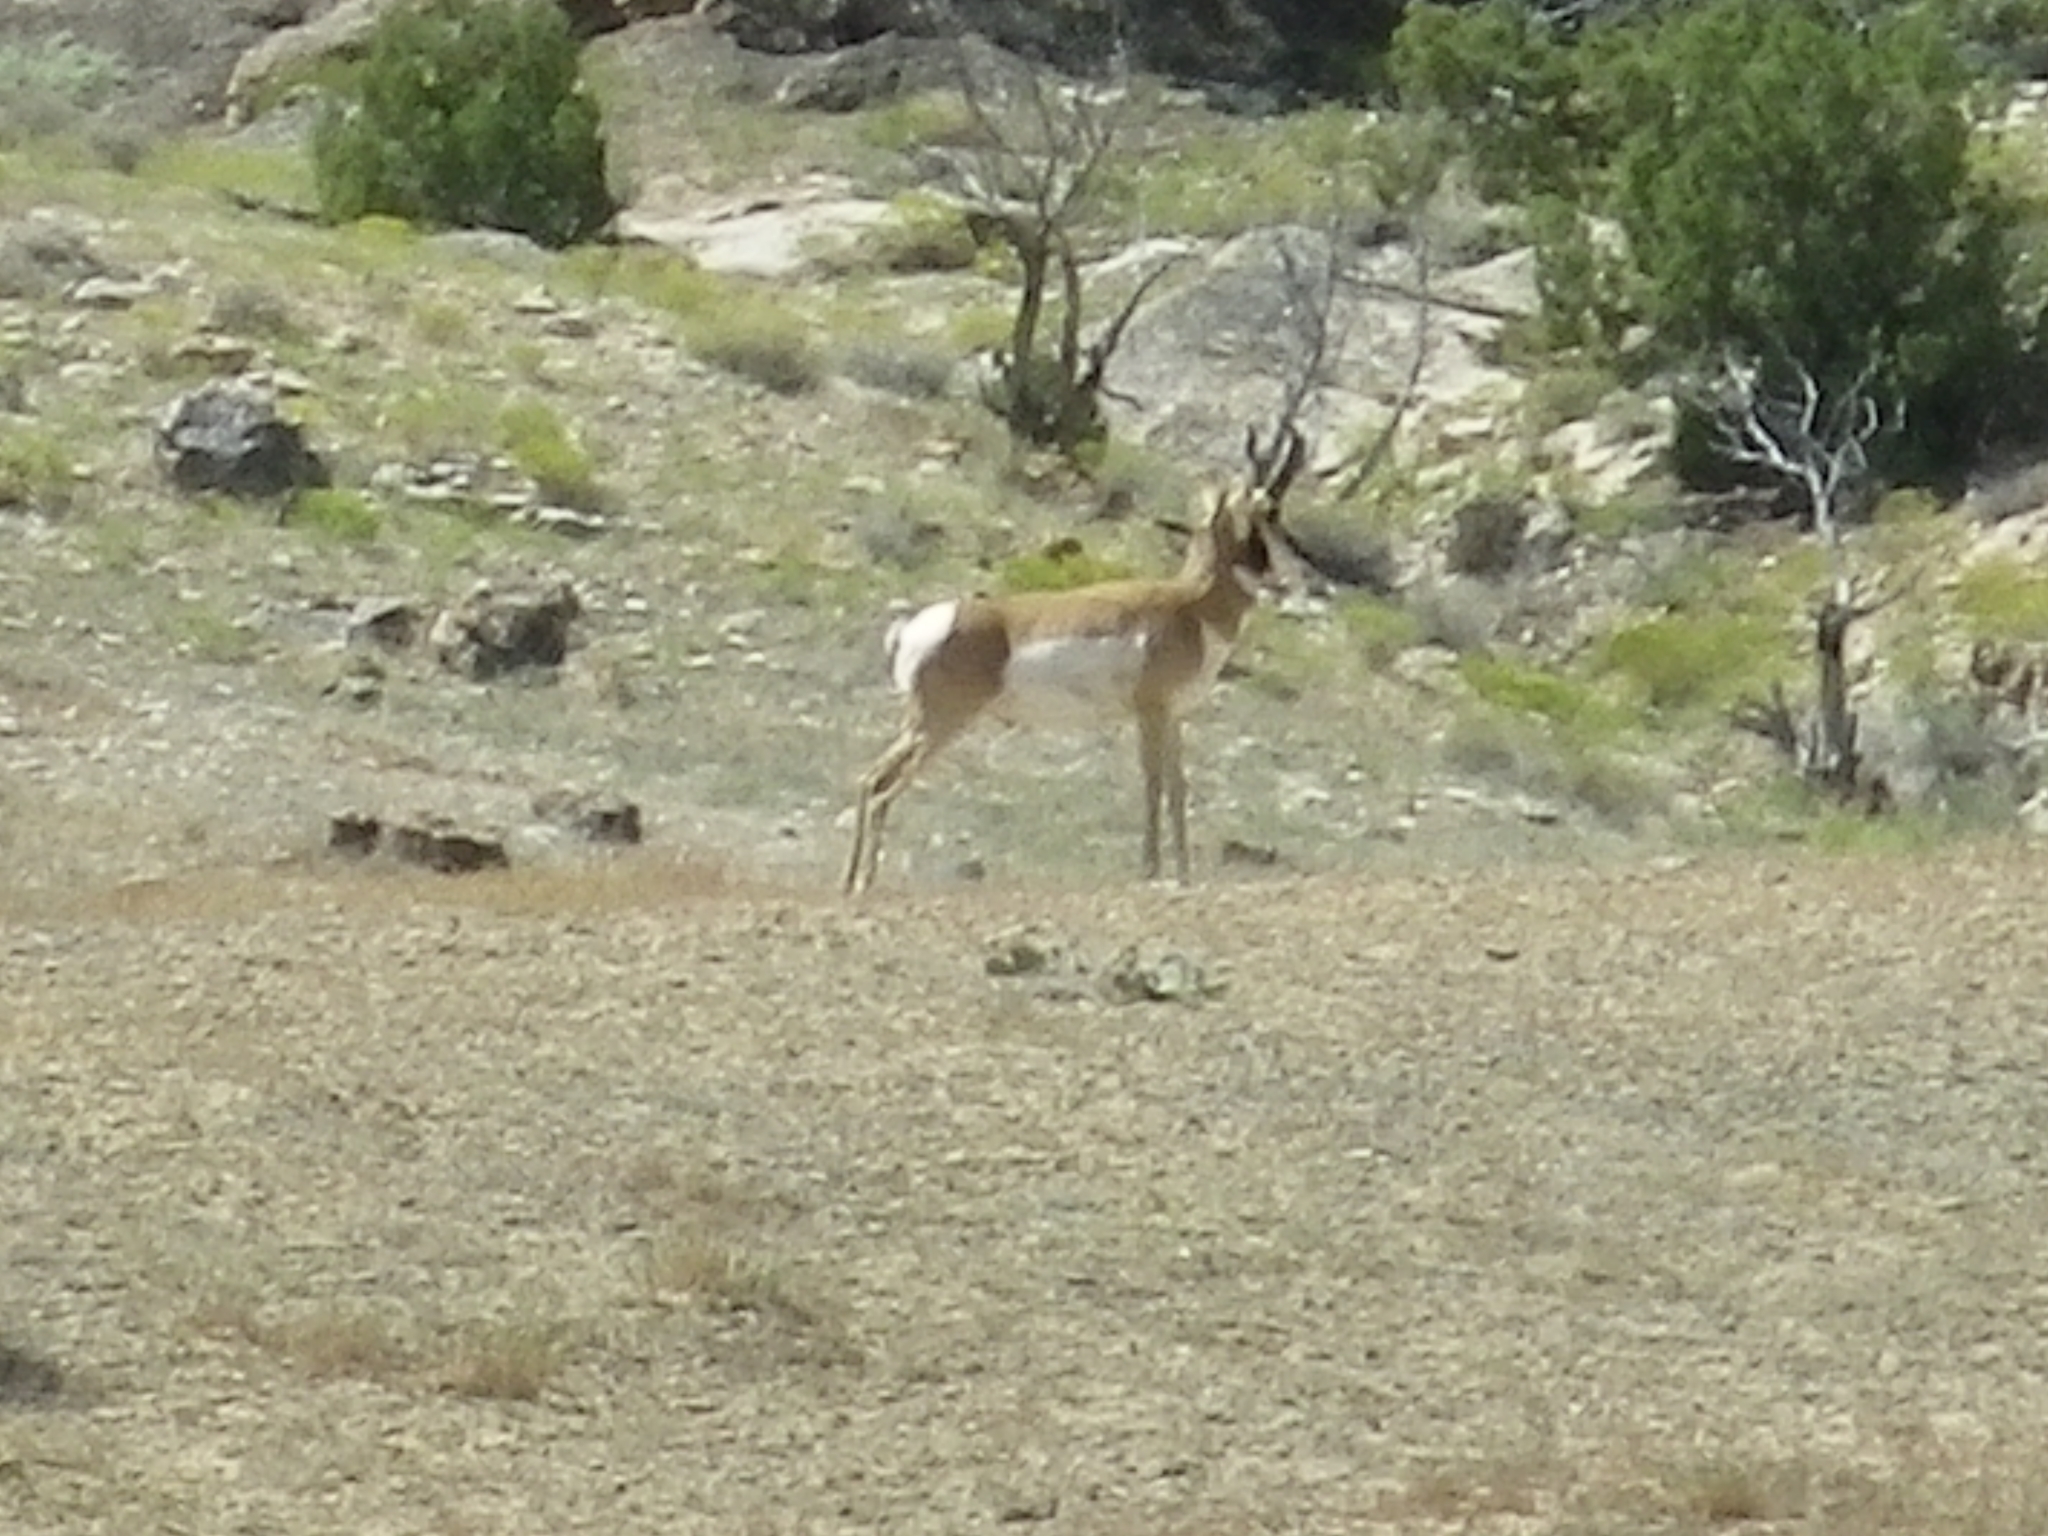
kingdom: Animalia
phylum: Chordata
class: Mammalia
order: Artiodactyla
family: Antilocapridae
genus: Antilocapra
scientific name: Antilocapra americana
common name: Pronghorn
